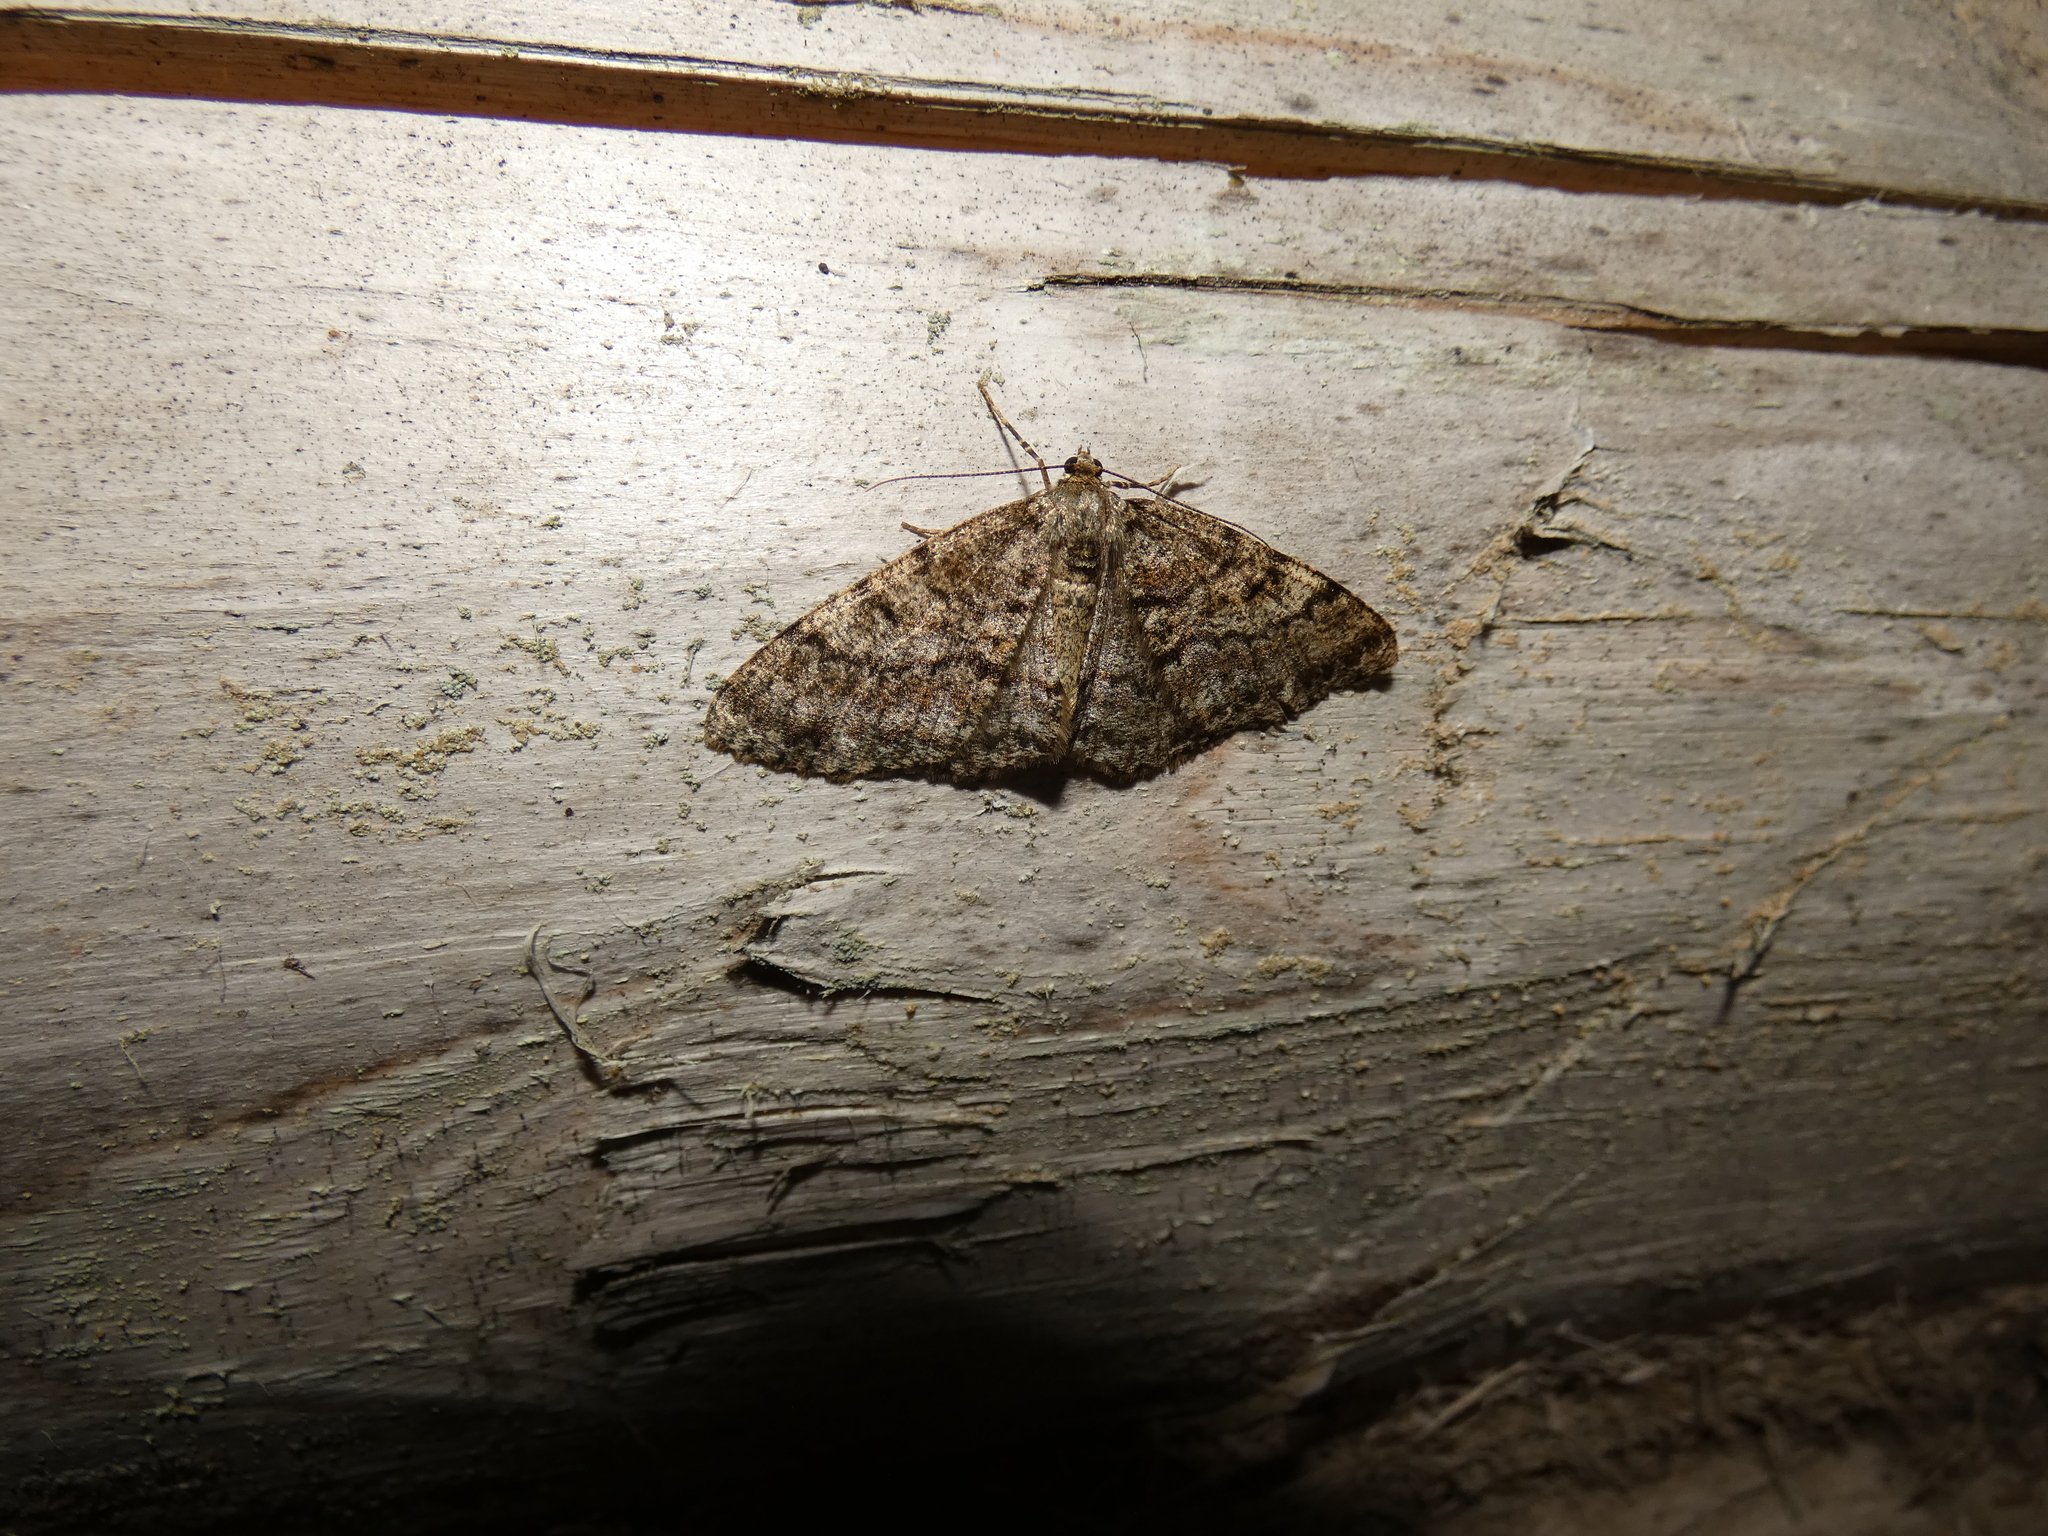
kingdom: Animalia
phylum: Arthropoda
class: Insecta
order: Lepidoptera
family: Geometridae
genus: Deileptenia
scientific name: Deileptenia ribeata
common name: Satin beauty
